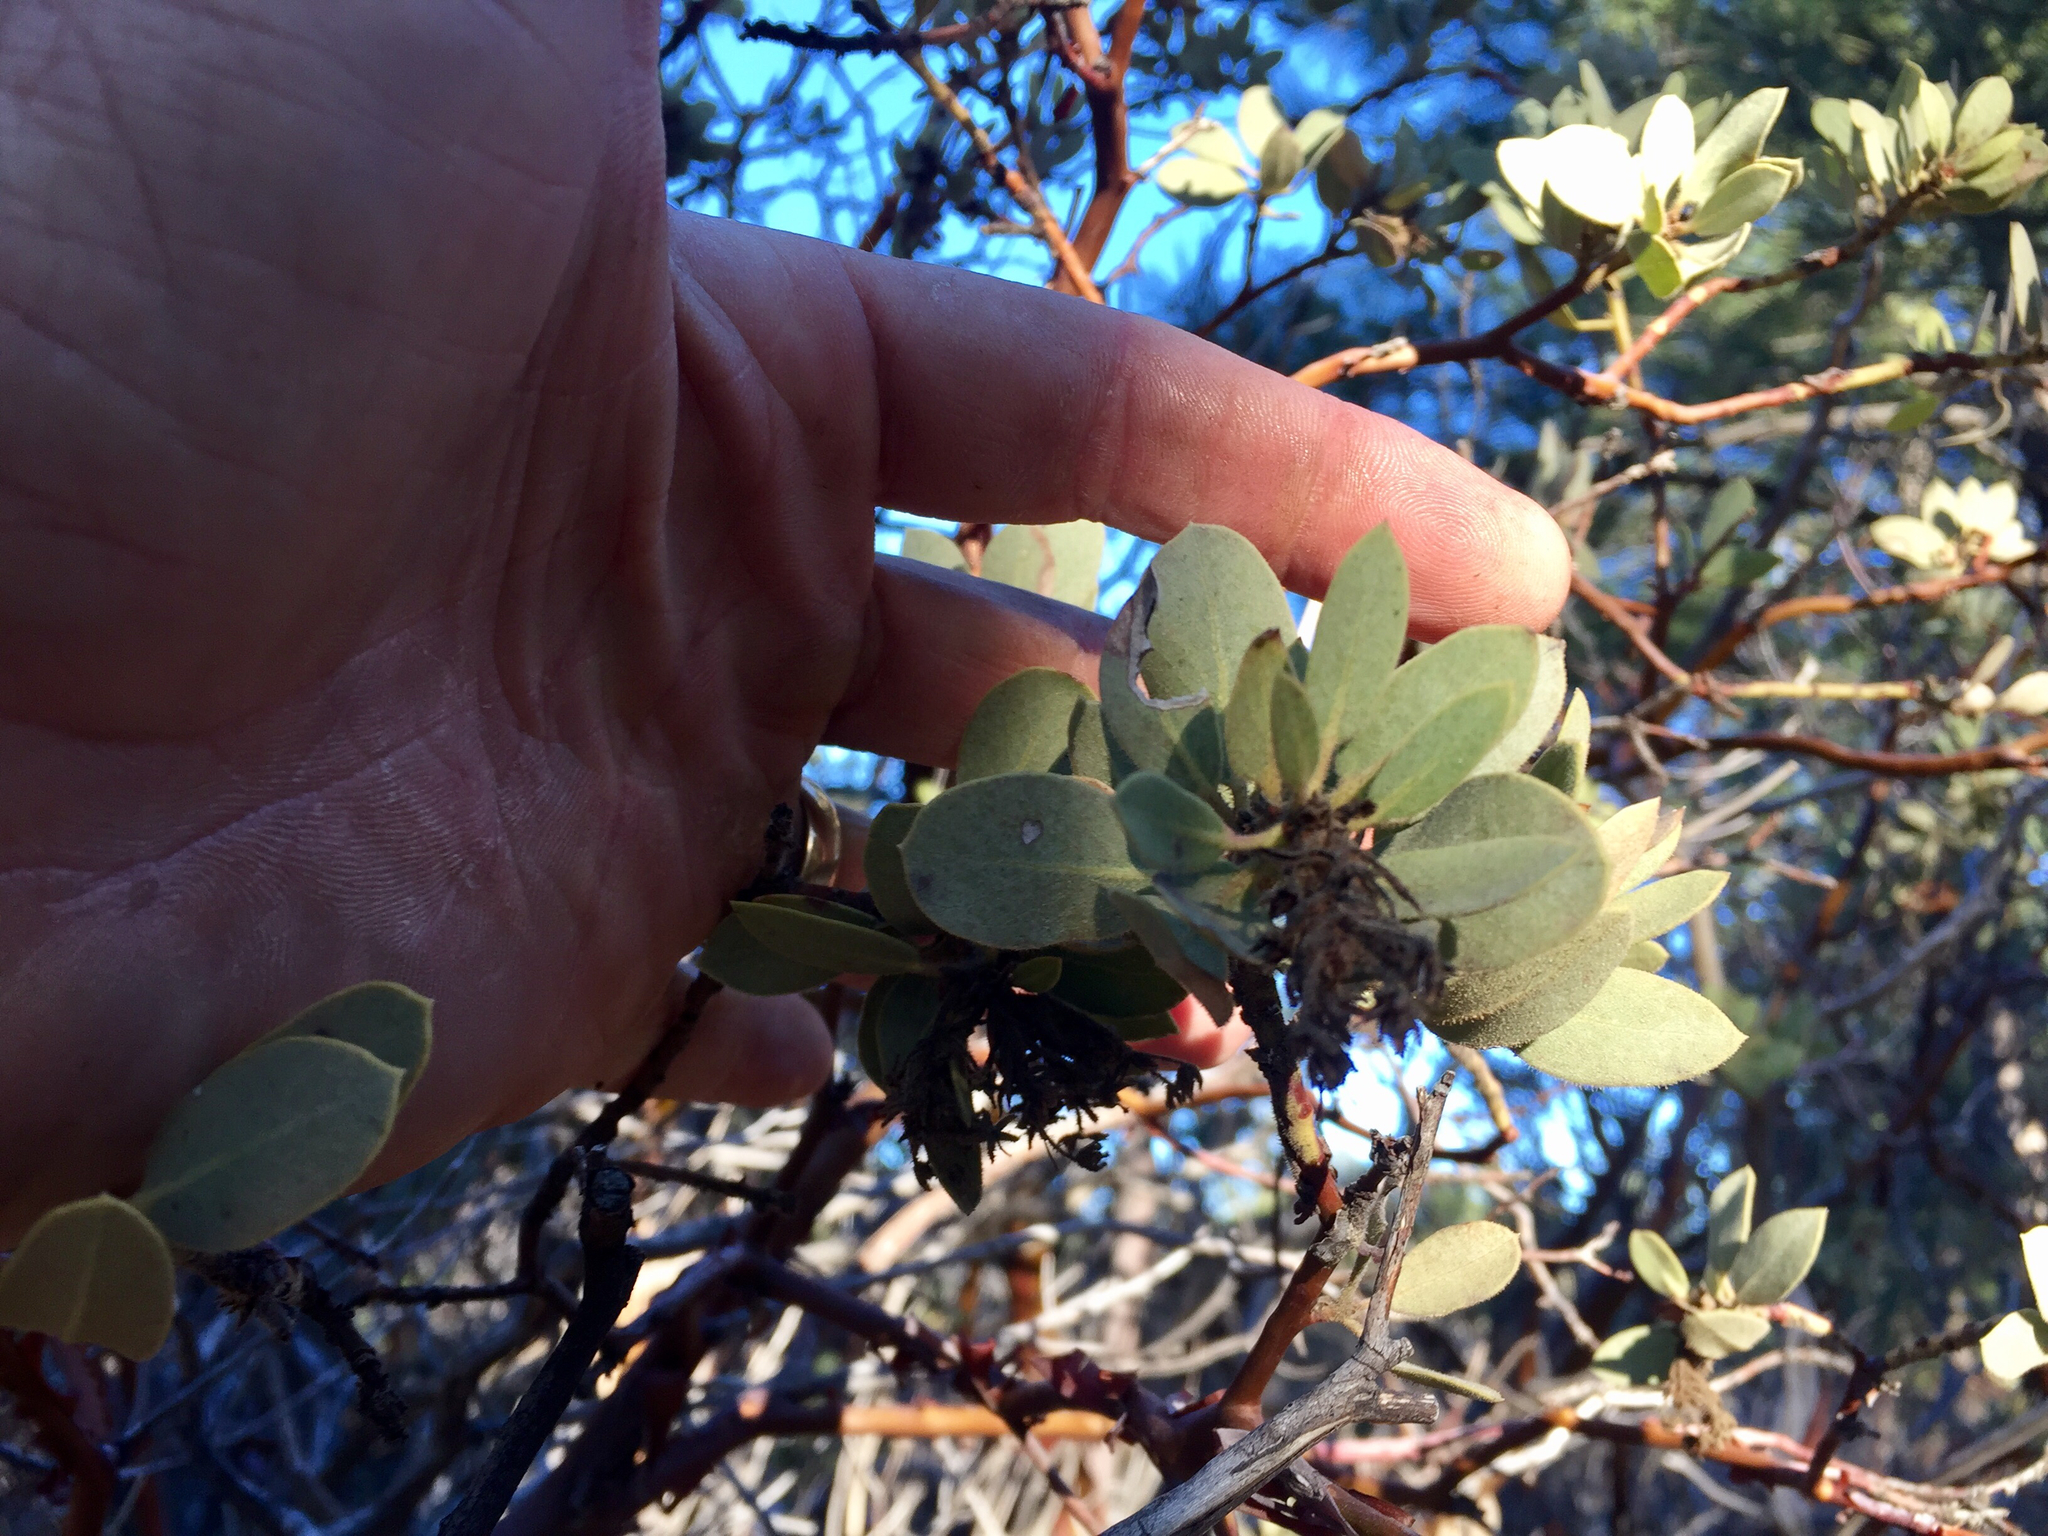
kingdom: Plantae
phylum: Tracheophyta
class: Magnoliopsida
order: Ericales
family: Ericaceae
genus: Arctostaphylos
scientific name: Arctostaphylos pringlei
